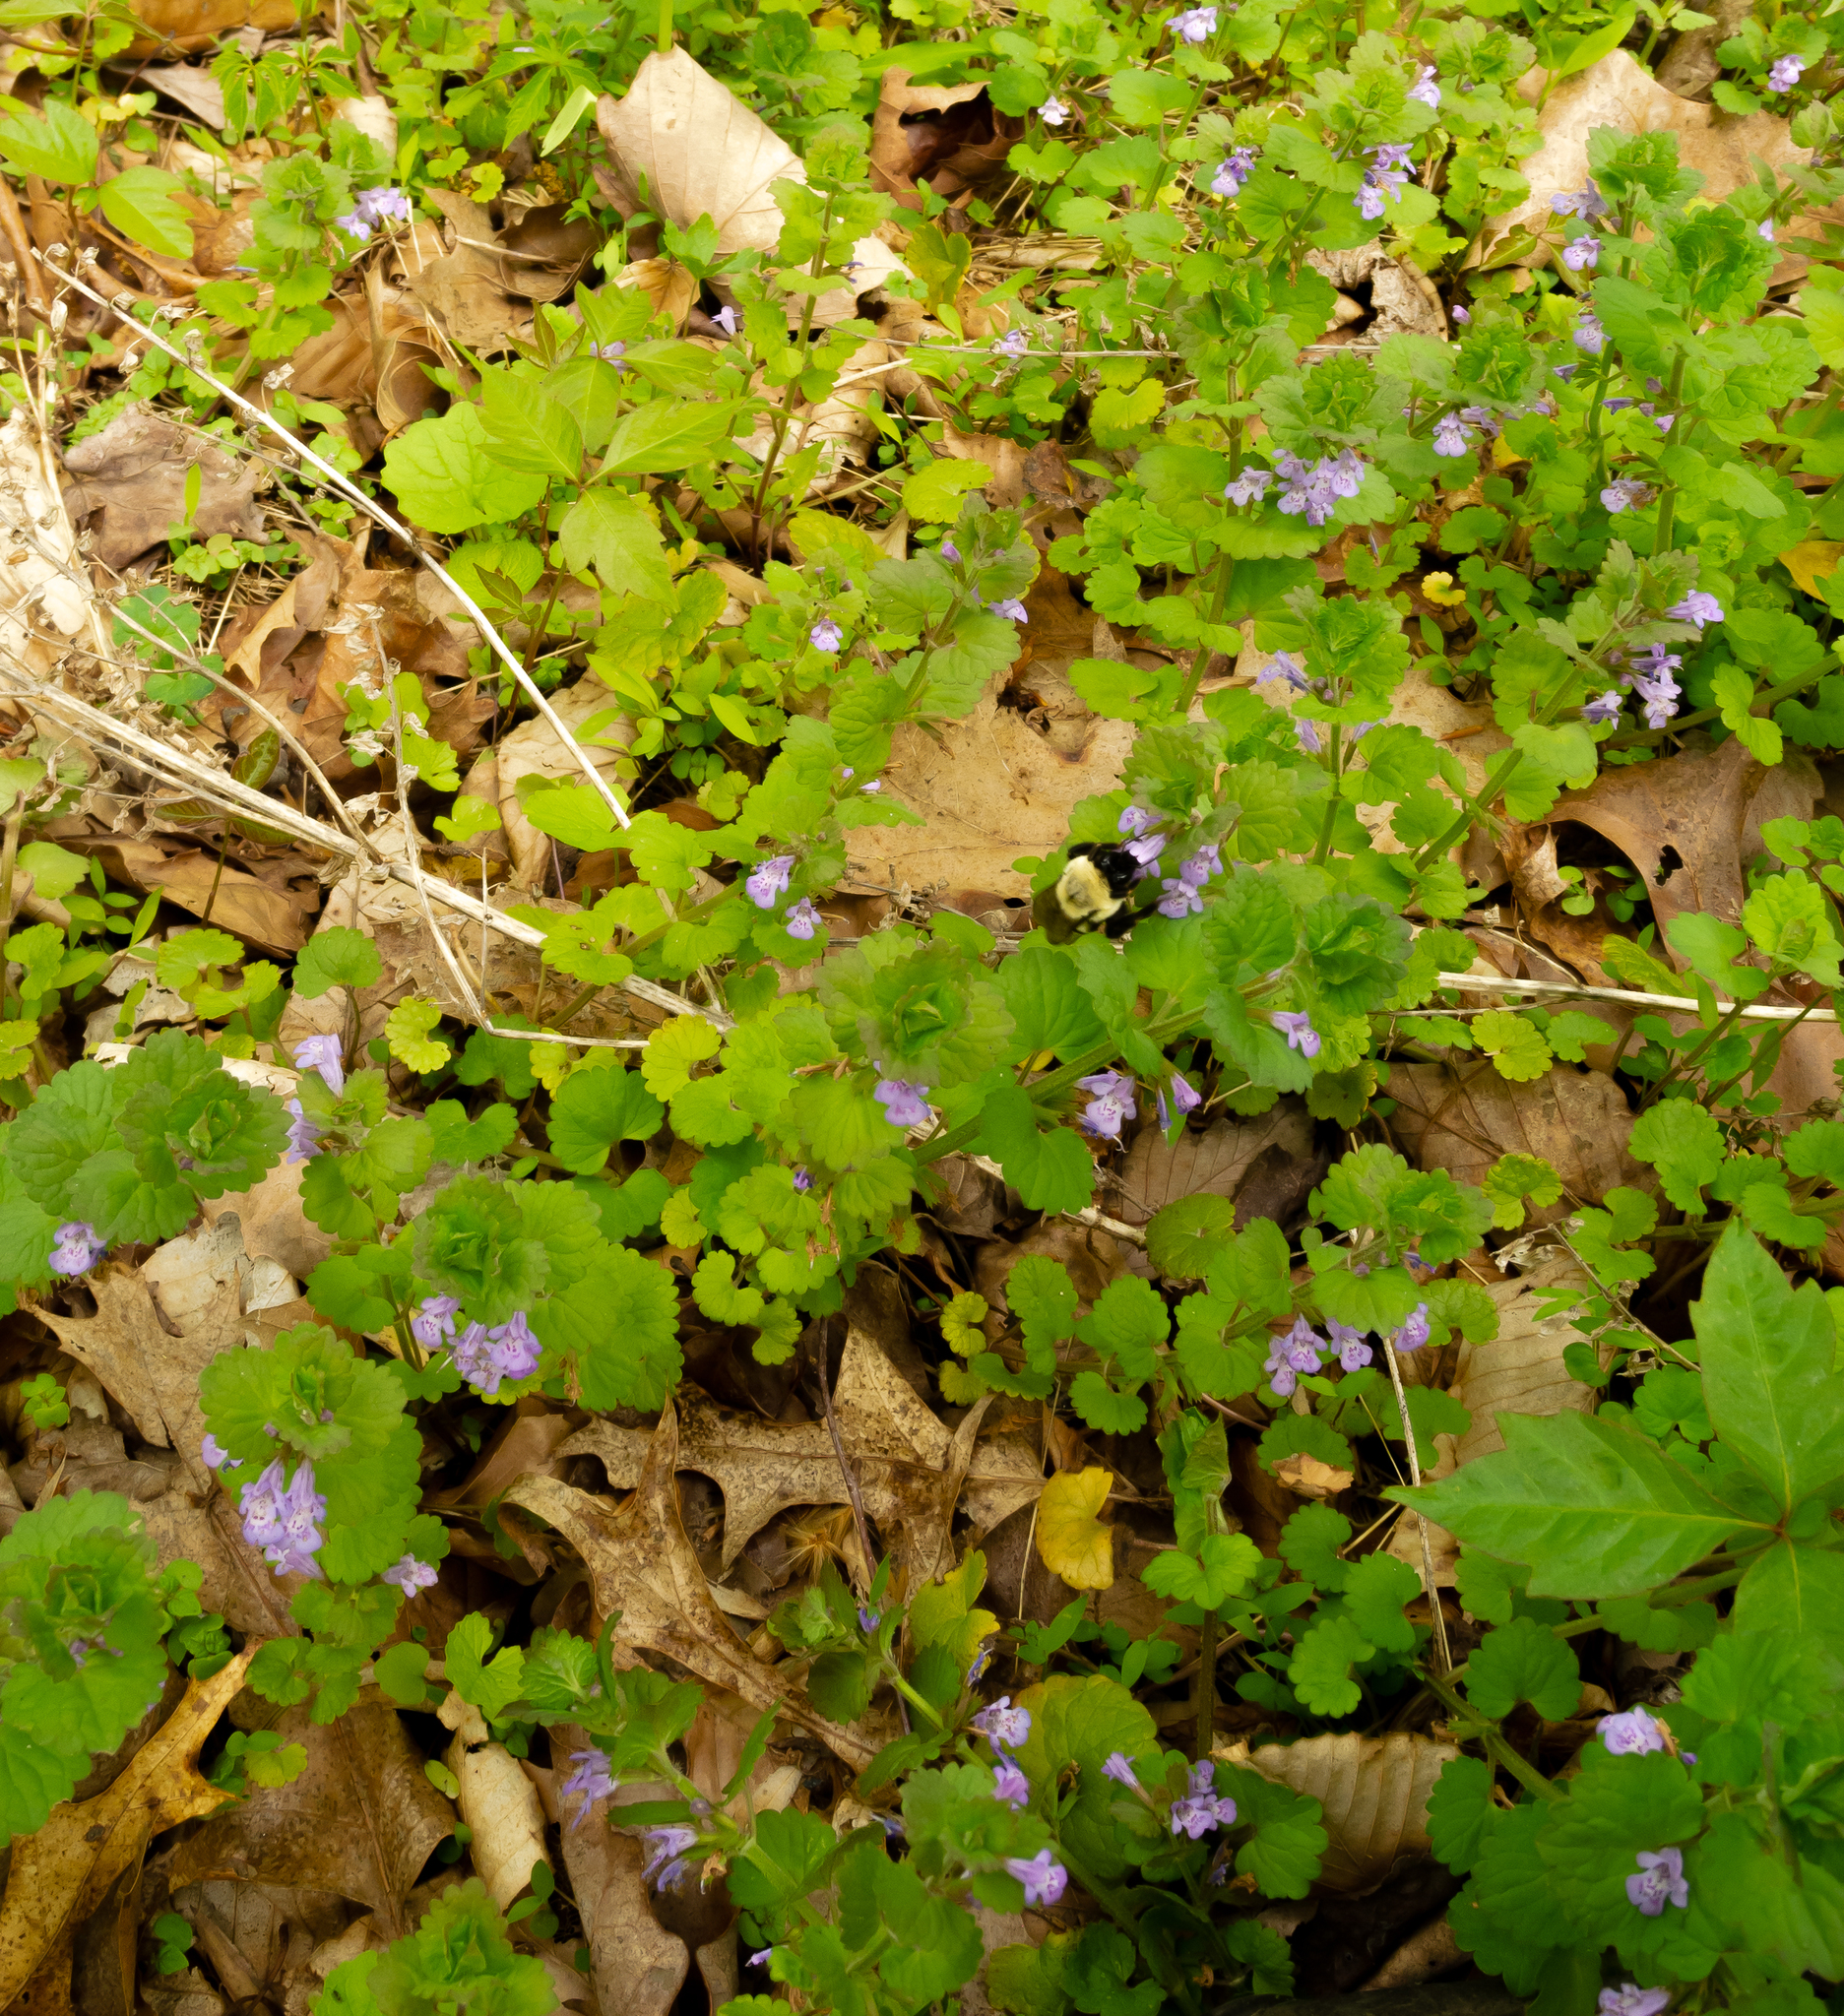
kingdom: Plantae
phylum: Tracheophyta
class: Magnoliopsida
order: Lamiales
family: Lamiaceae
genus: Glechoma
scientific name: Glechoma hederacea
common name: Ground ivy
